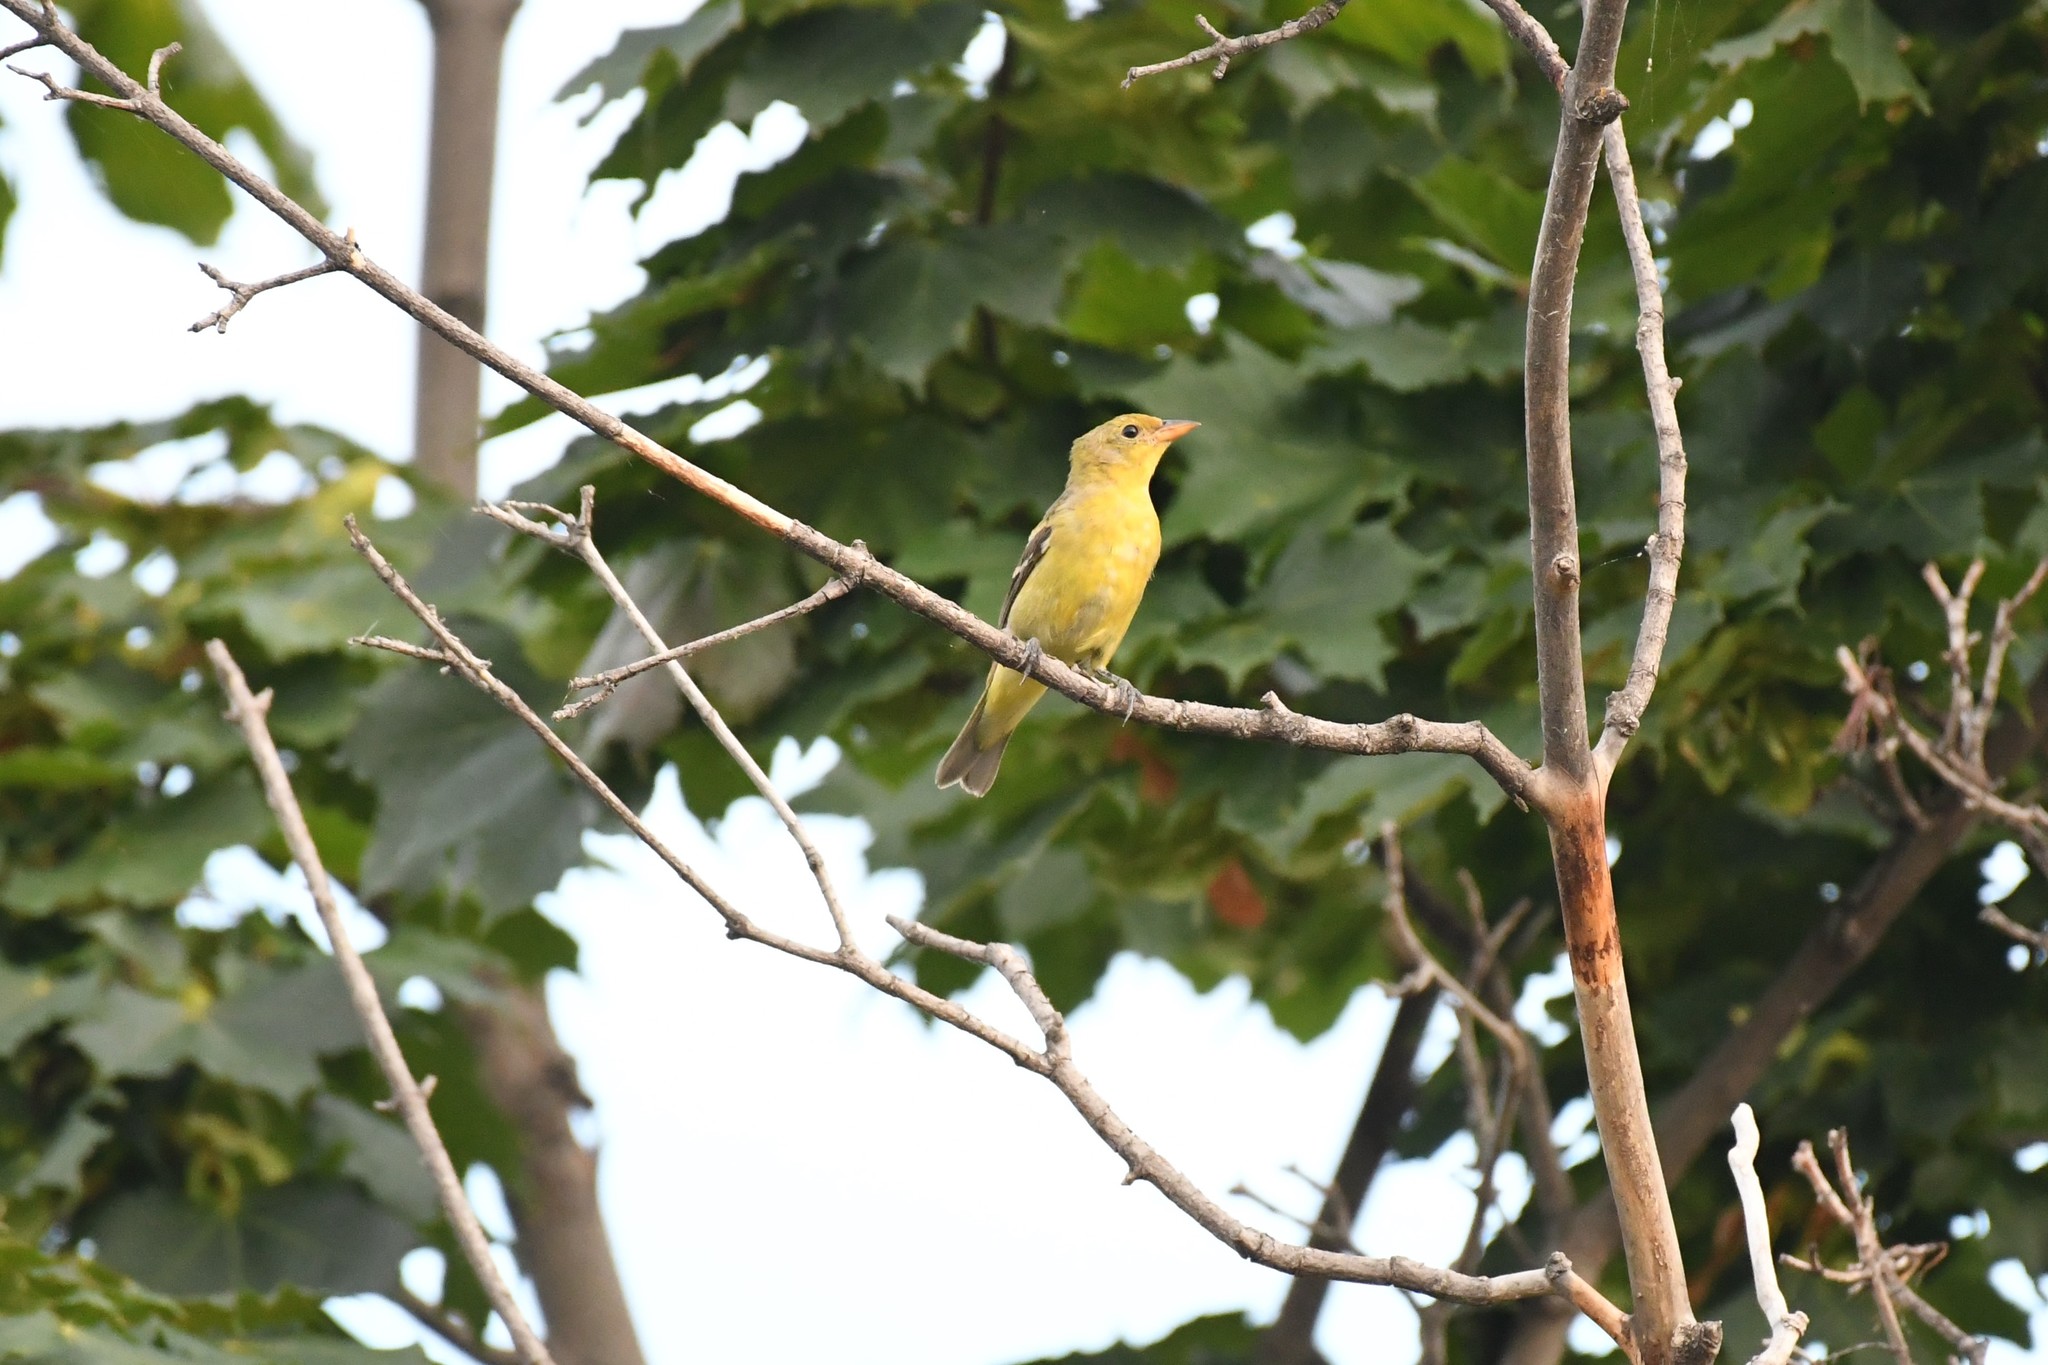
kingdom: Animalia
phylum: Chordata
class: Aves
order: Passeriformes
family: Cardinalidae
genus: Piranga
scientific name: Piranga ludoviciana
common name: Western tanager
